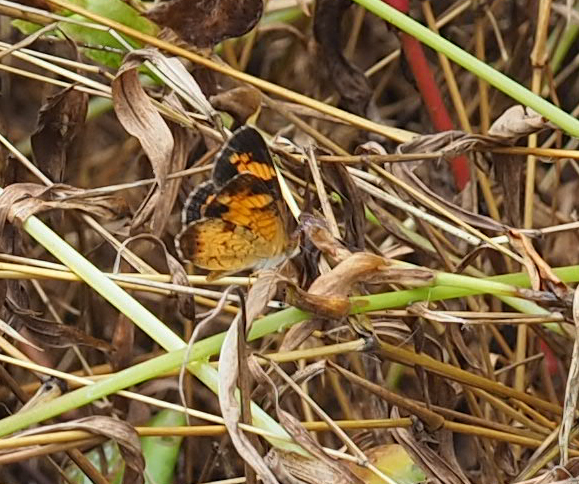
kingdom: Animalia
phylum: Arthropoda
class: Insecta
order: Lepidoptera
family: Nymphalidae
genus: Phyciodes
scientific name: Phyciodes tharos
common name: Pearl crescent
